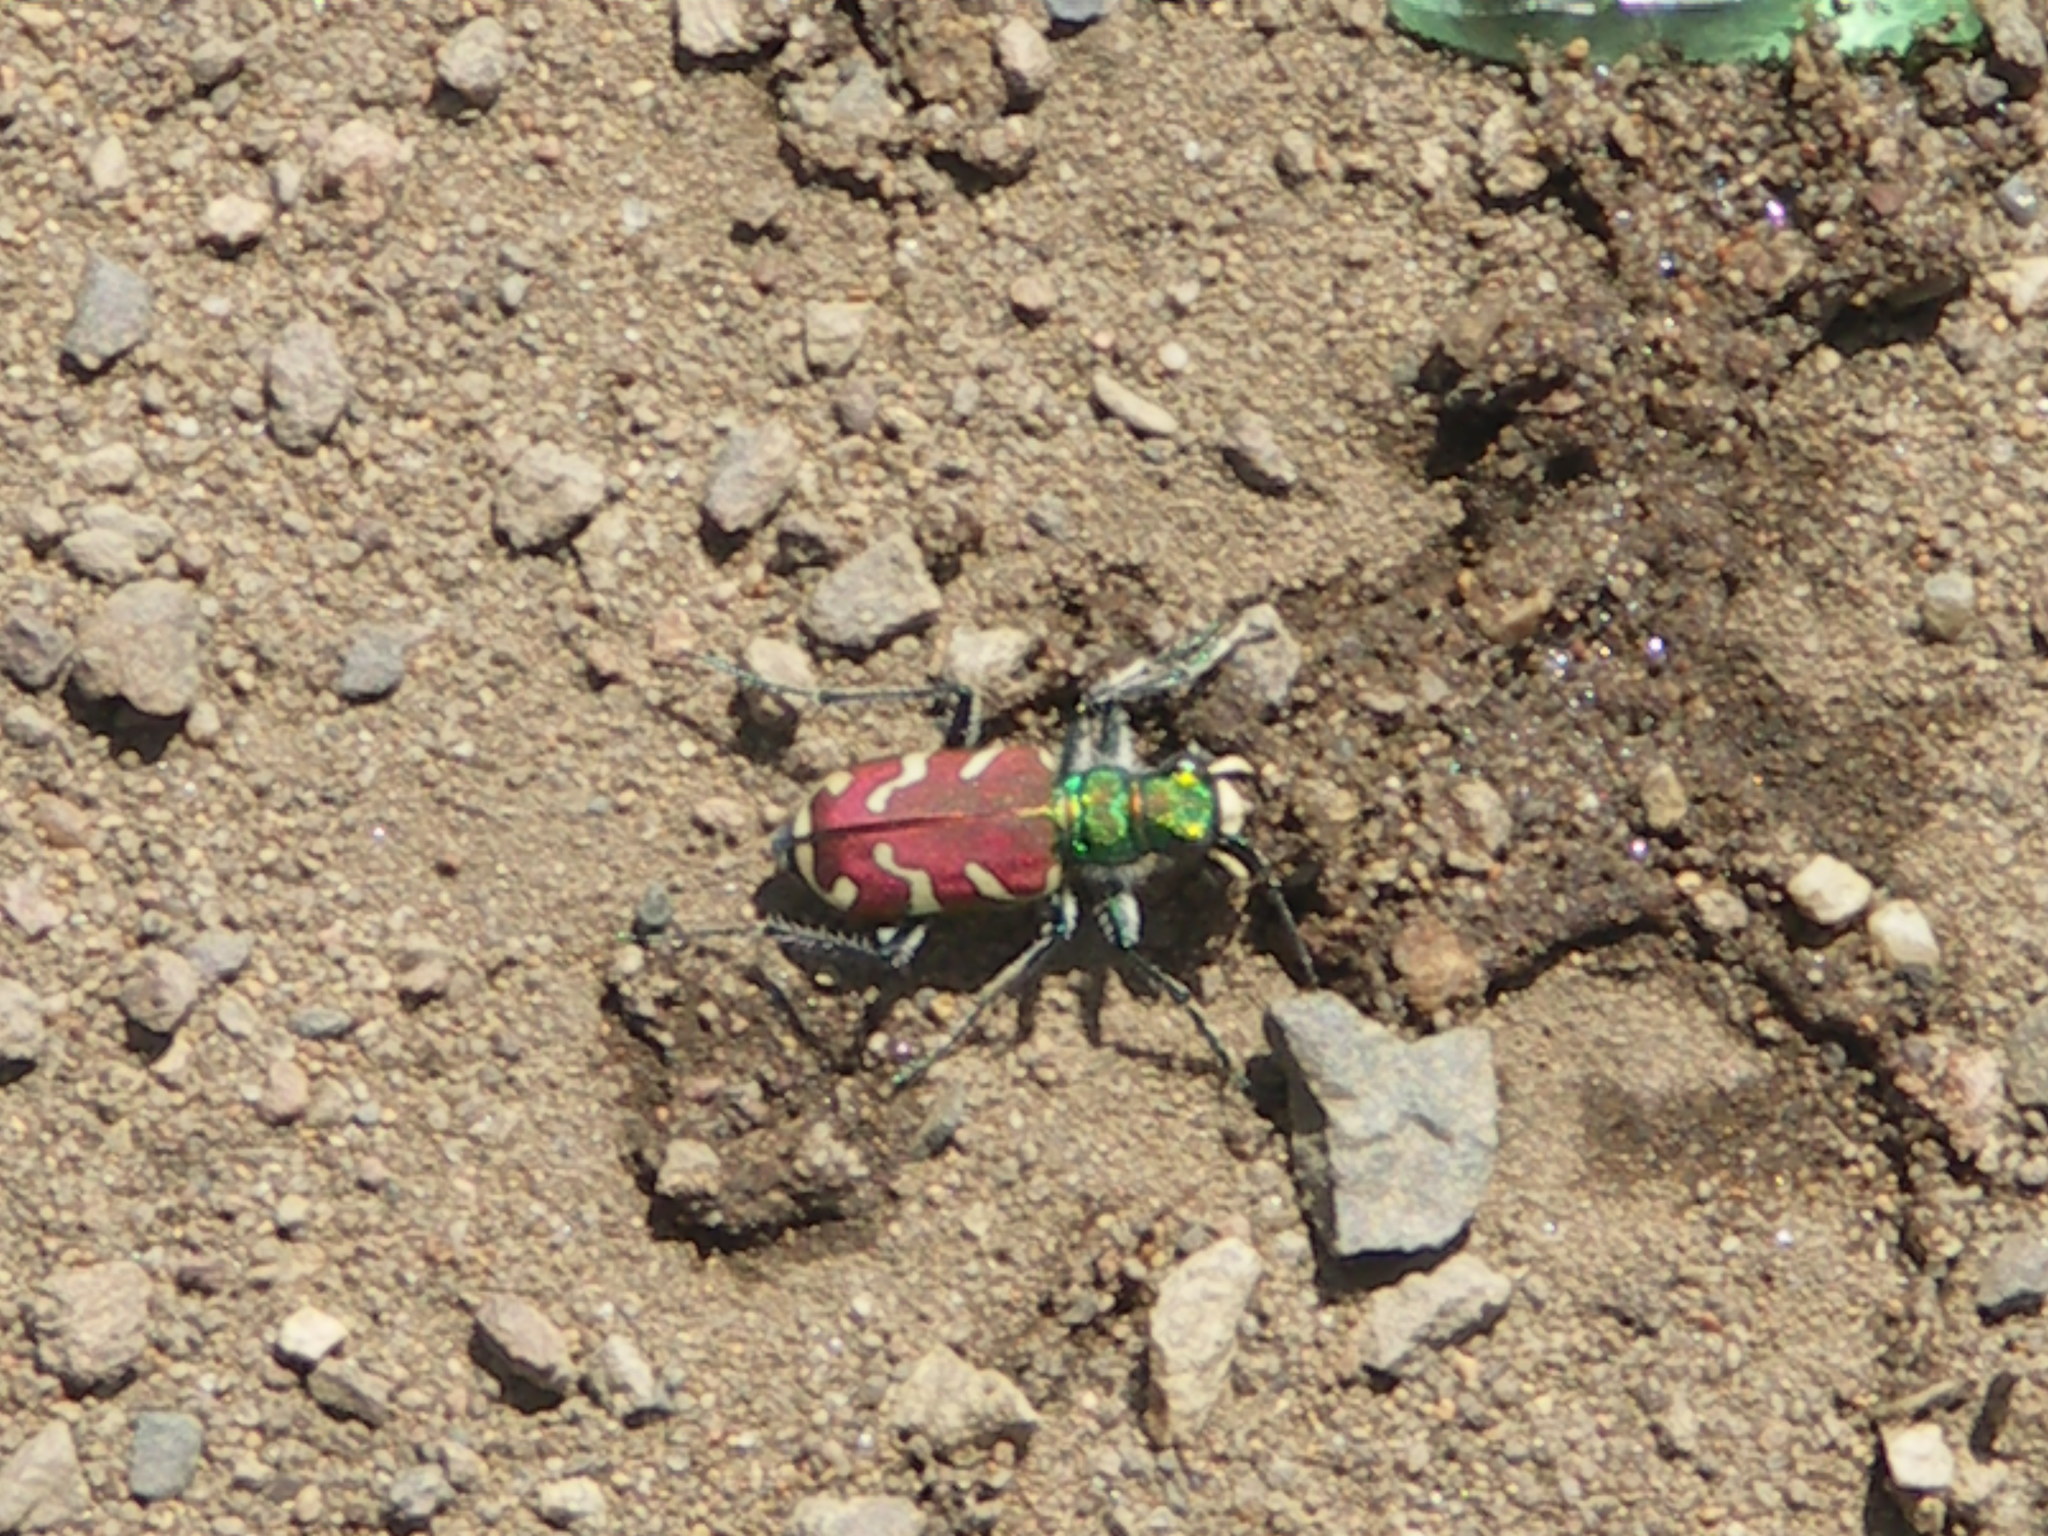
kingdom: Animalia
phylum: Arthropoda
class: Insecta
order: Coleoptera
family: Carabidae
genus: Cicindela
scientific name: Cicindela coerulea
